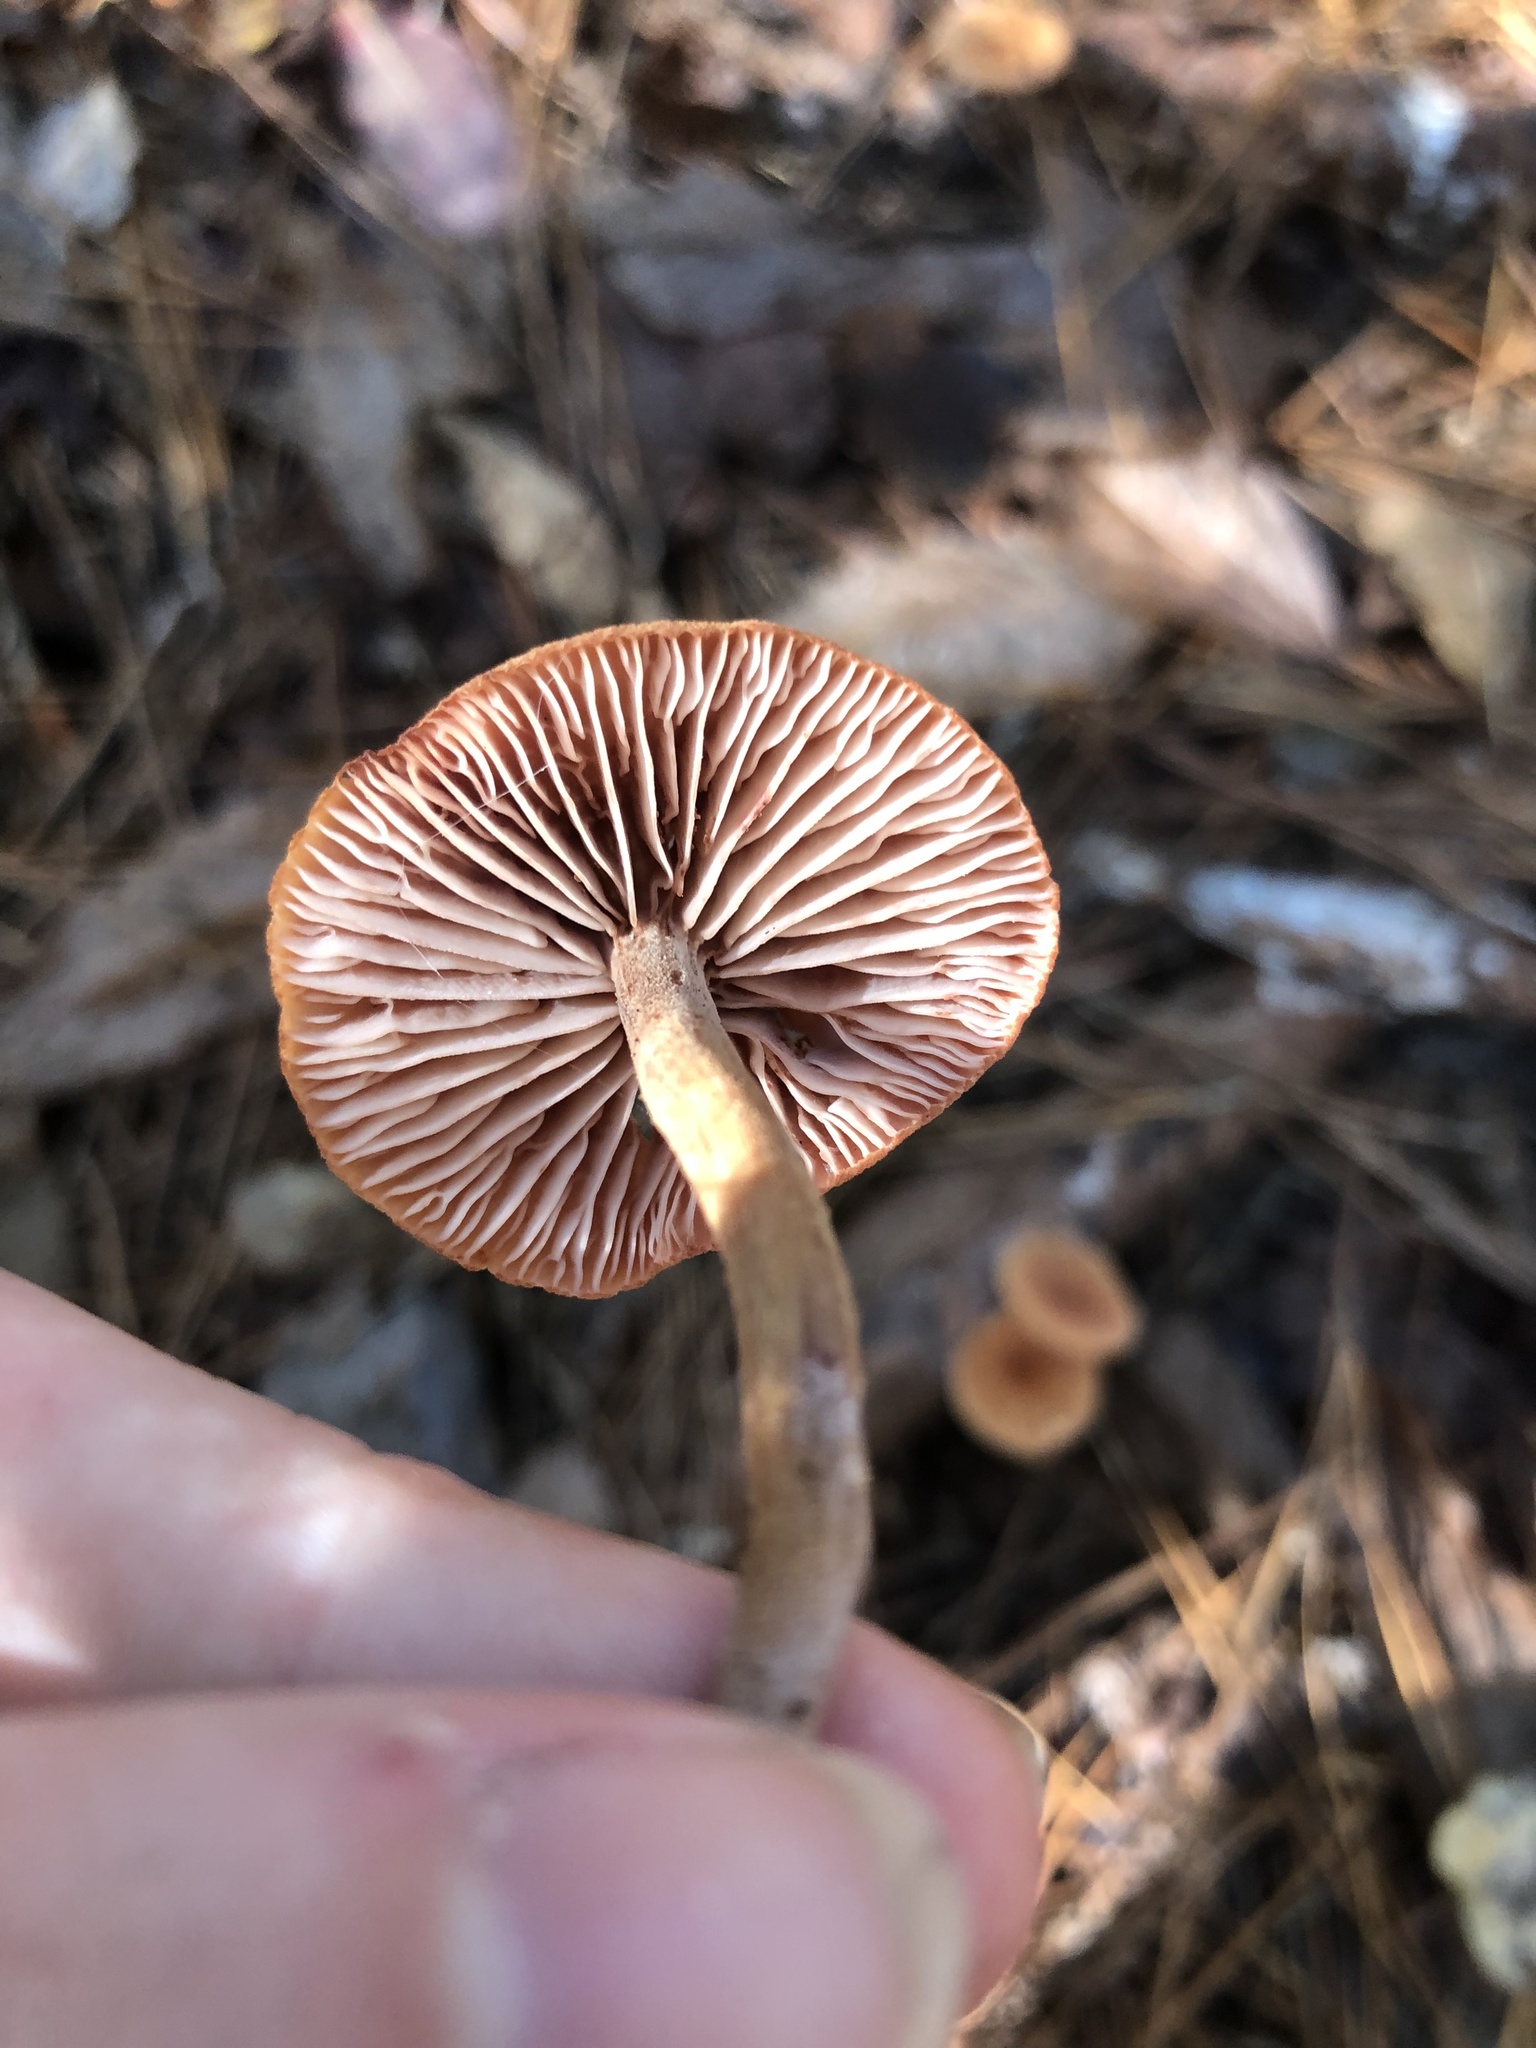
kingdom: Fungi
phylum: Basidiomycota
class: Agaricomycetes
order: Agaricales
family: Hydnangiaceae
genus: Laccaria
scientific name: Laccaria laccata
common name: Deceiver
